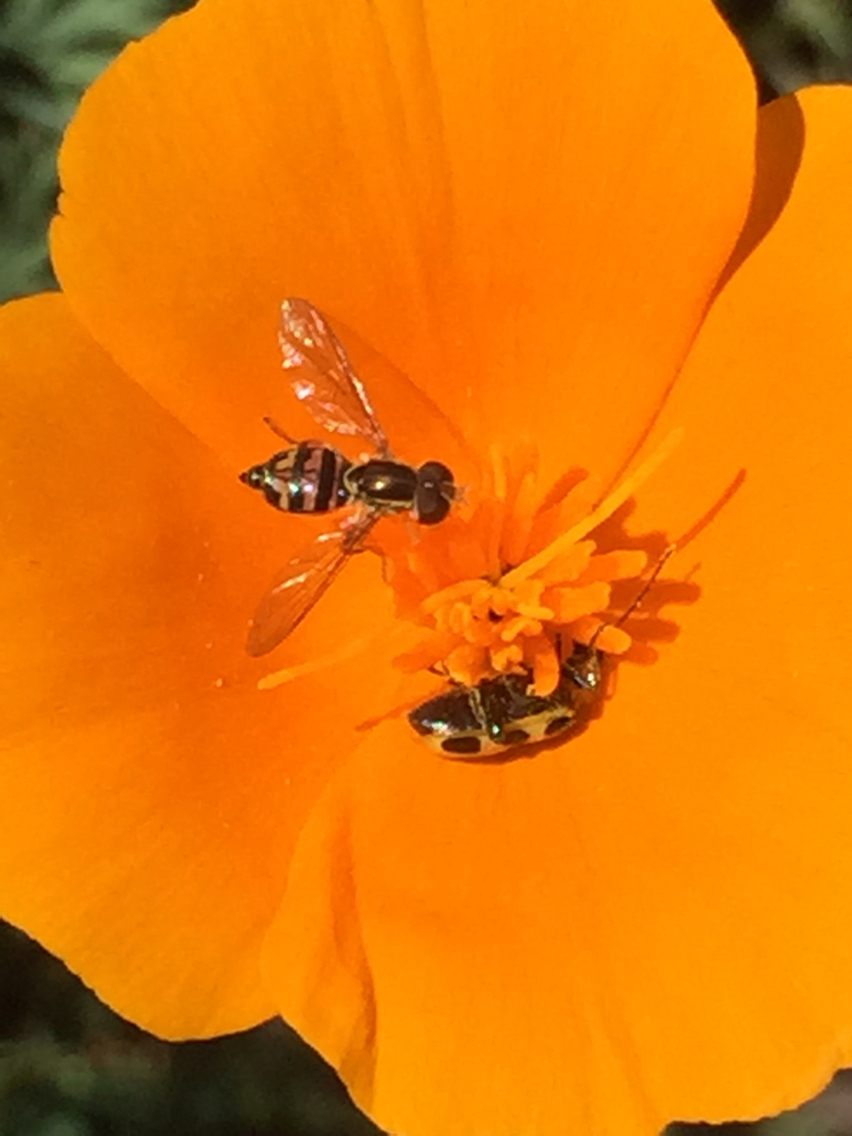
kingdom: Animalia
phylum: Arthropoda
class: Insecta
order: Diptera
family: Syrphidae
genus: Toxomerus
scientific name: Toxomerus occidentalis
